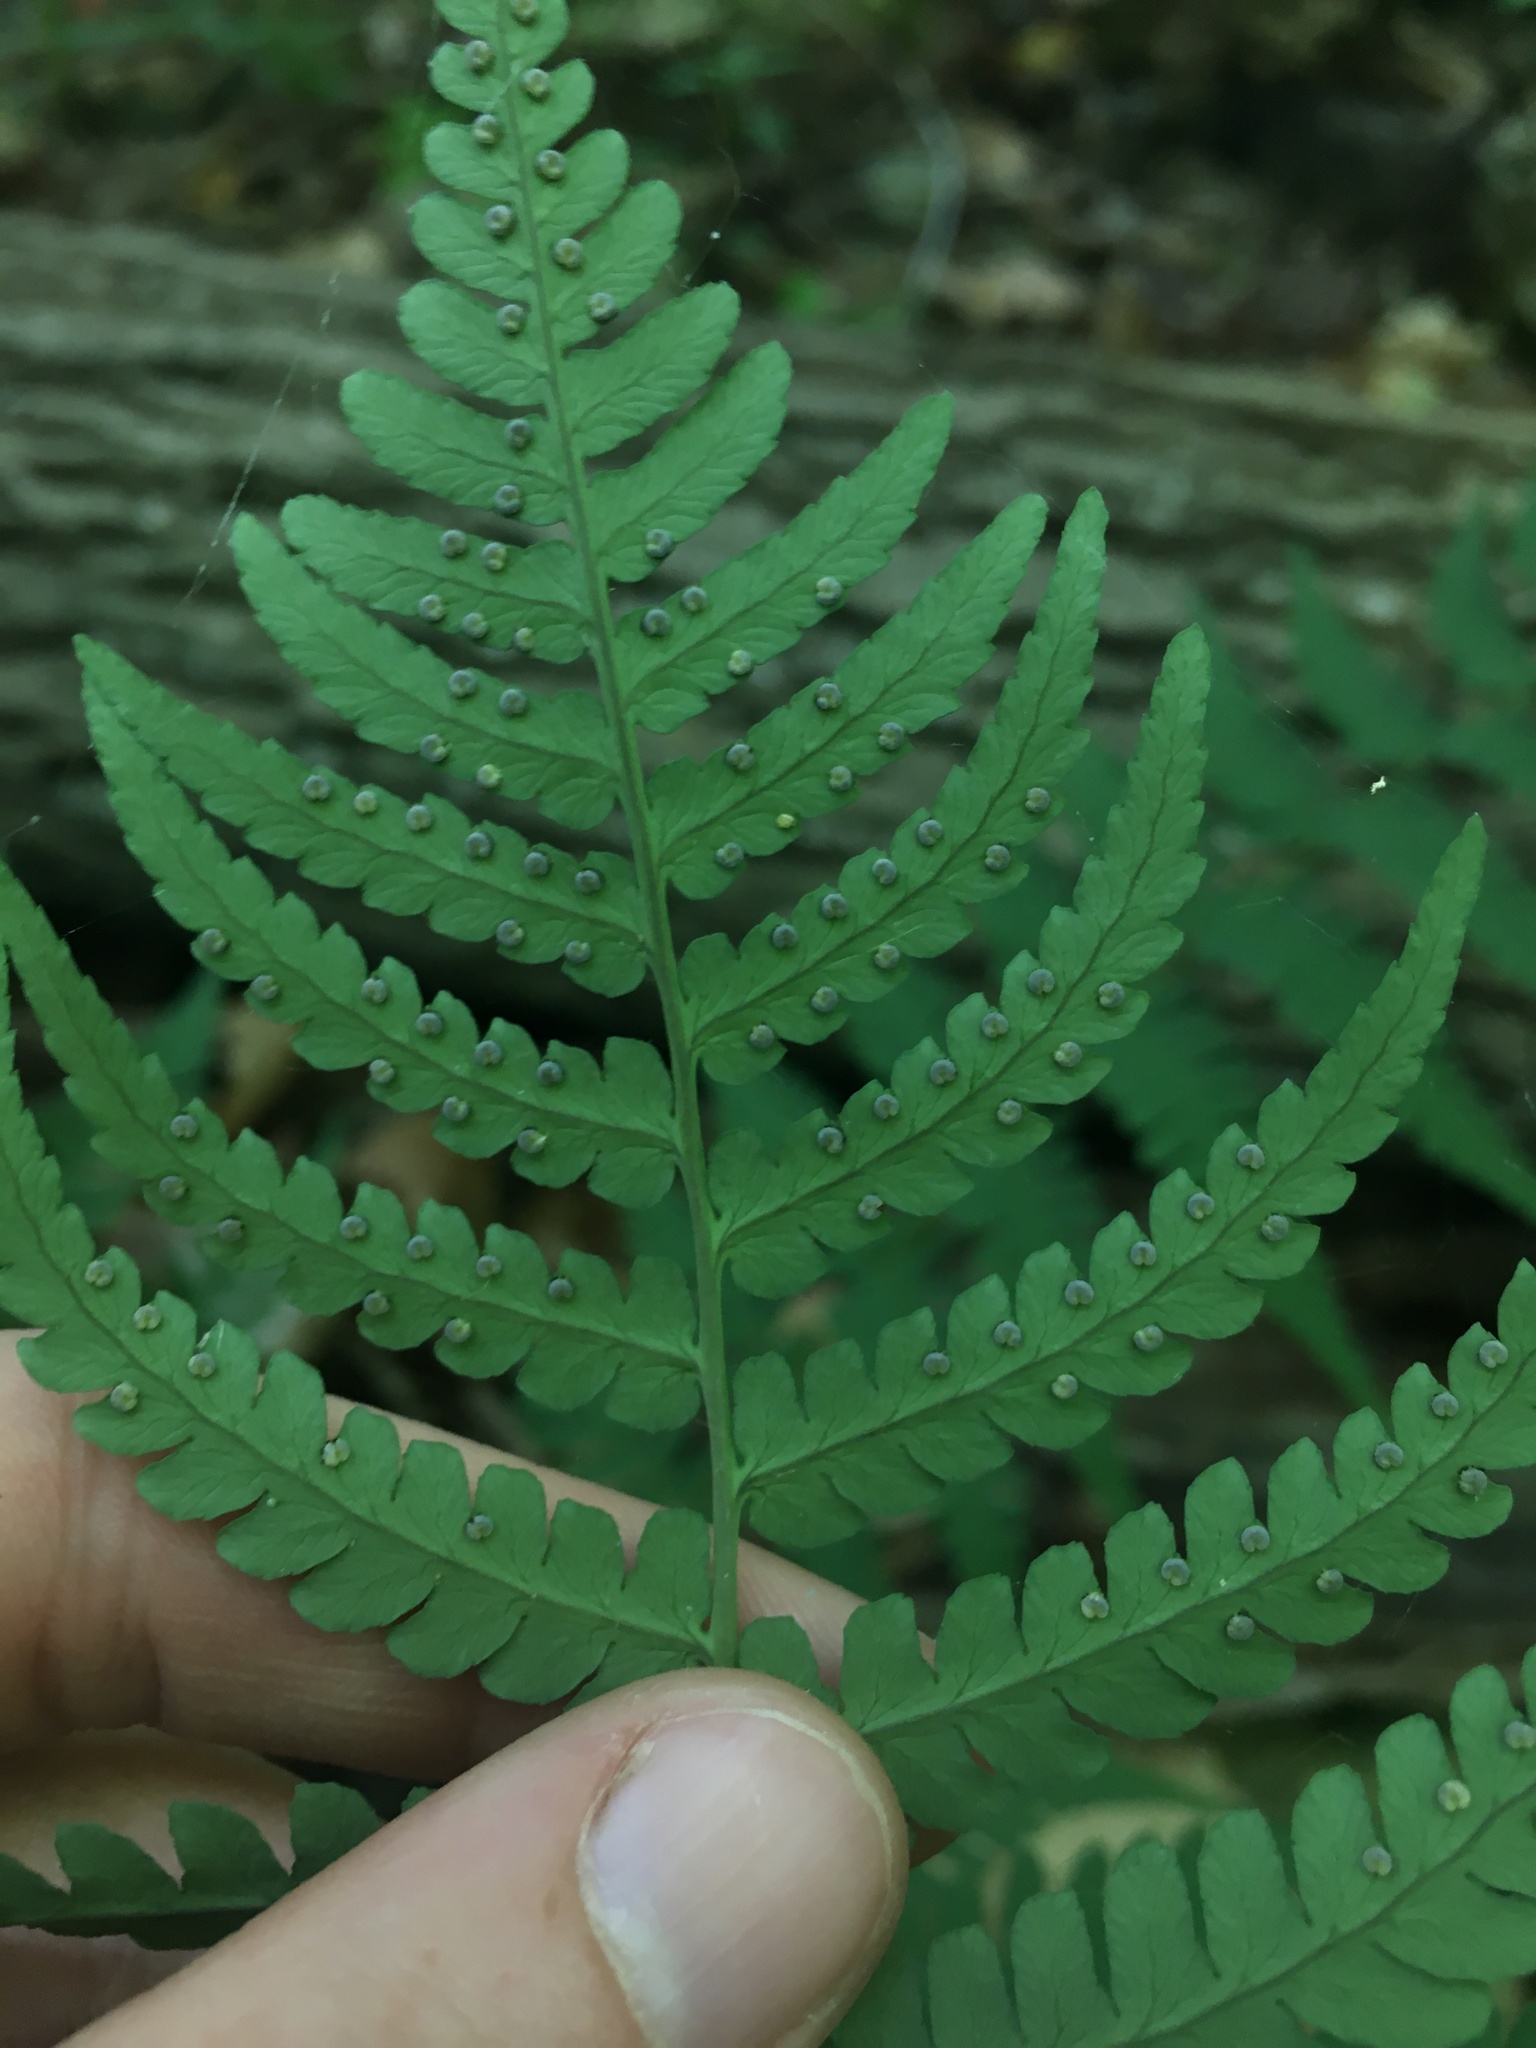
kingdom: Plantae
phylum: Tracheophyta
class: Polypodiopsida
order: Polypodiales
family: Dryopteridaceae
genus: Dryopteris
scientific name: Dryopteris marginalis
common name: Marginal wood fern
